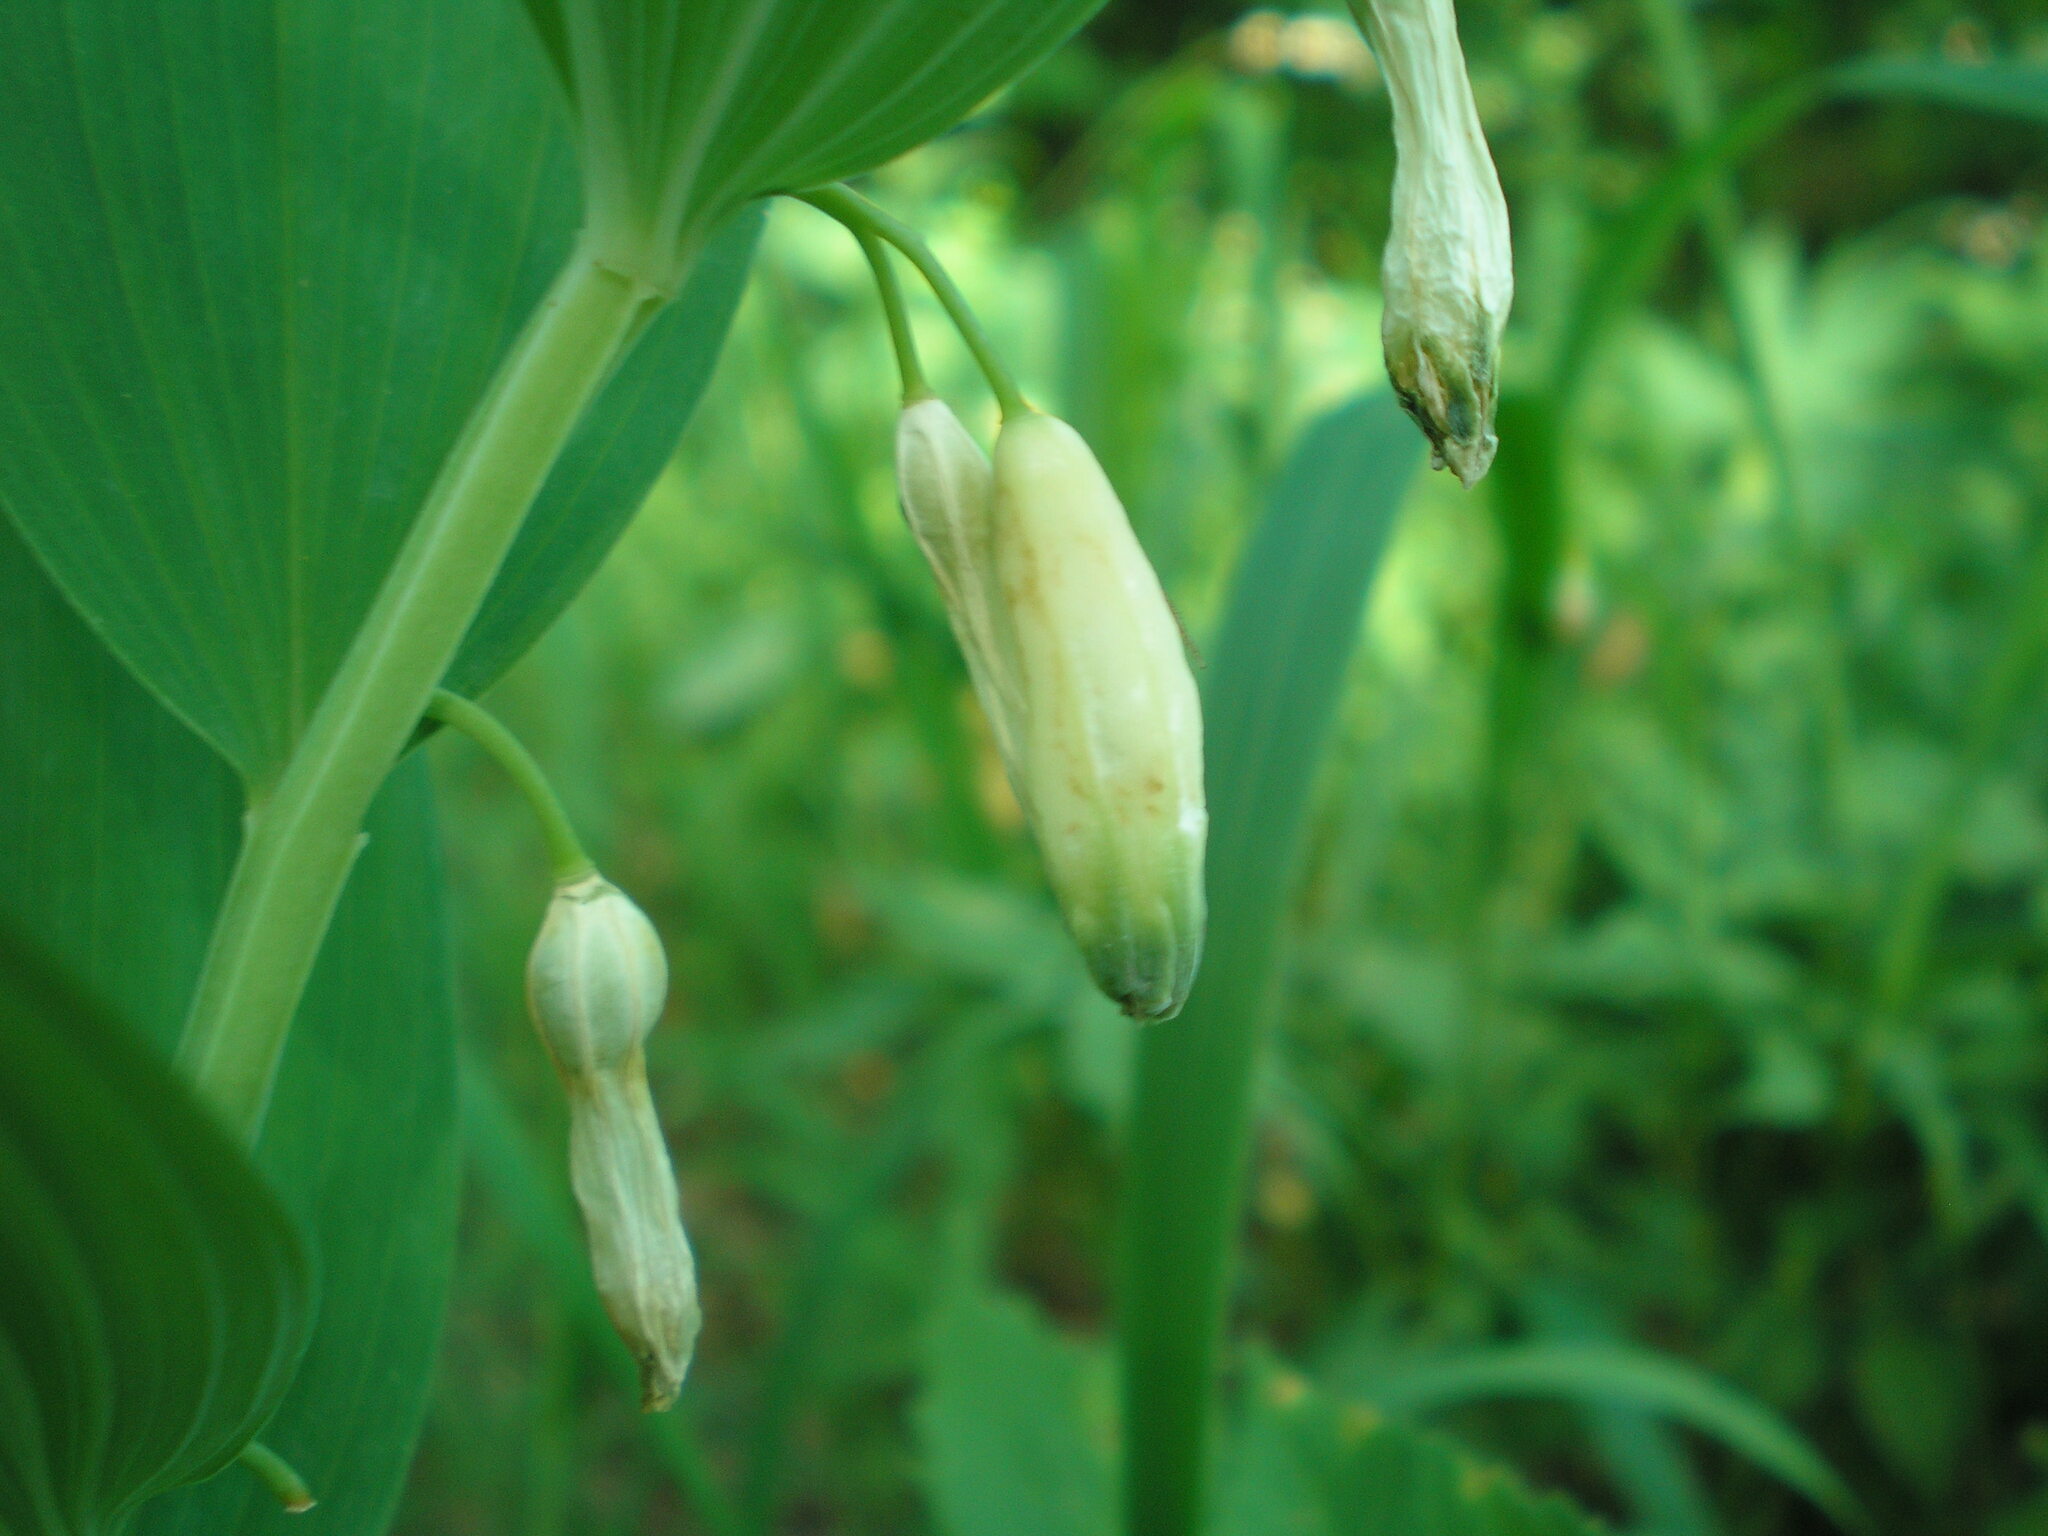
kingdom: Plantae
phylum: Tracheophyta
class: Liliopsida
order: Asparagales
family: Asparagaceae
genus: Polygonatum
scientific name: Polygonatum odoratum
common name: Angular solomon's-seal
